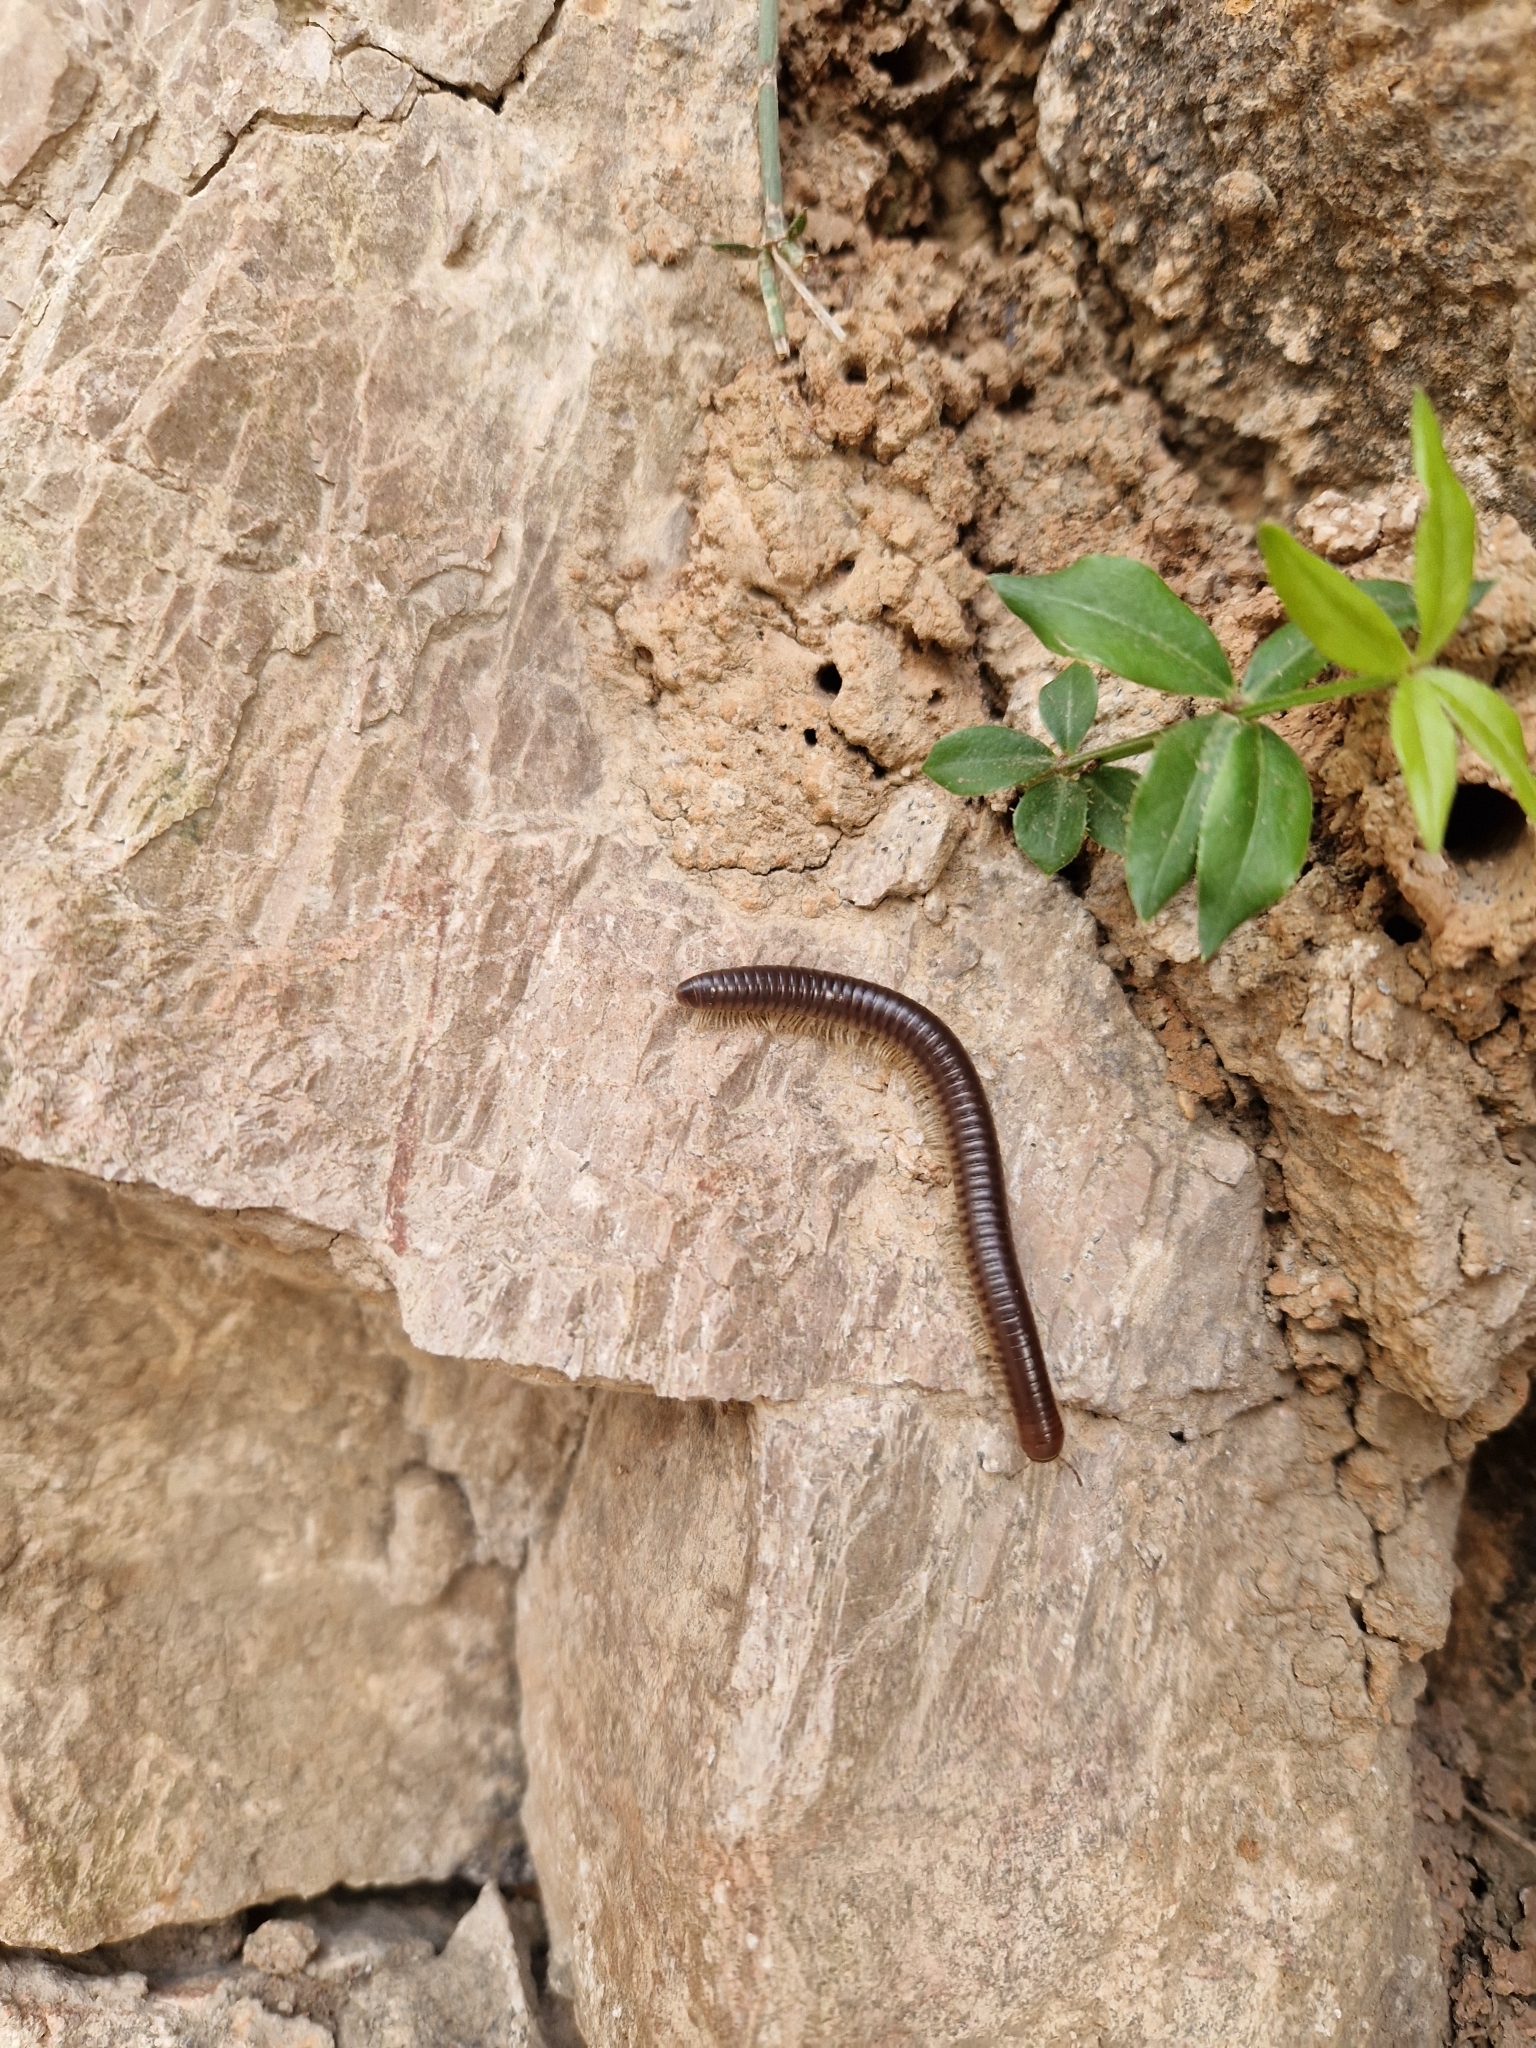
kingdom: Animalia
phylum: Arthropoda
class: Diplopoda
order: Julida
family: Julidae
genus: Pachyiulus
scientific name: Pachyiulus flavipes
